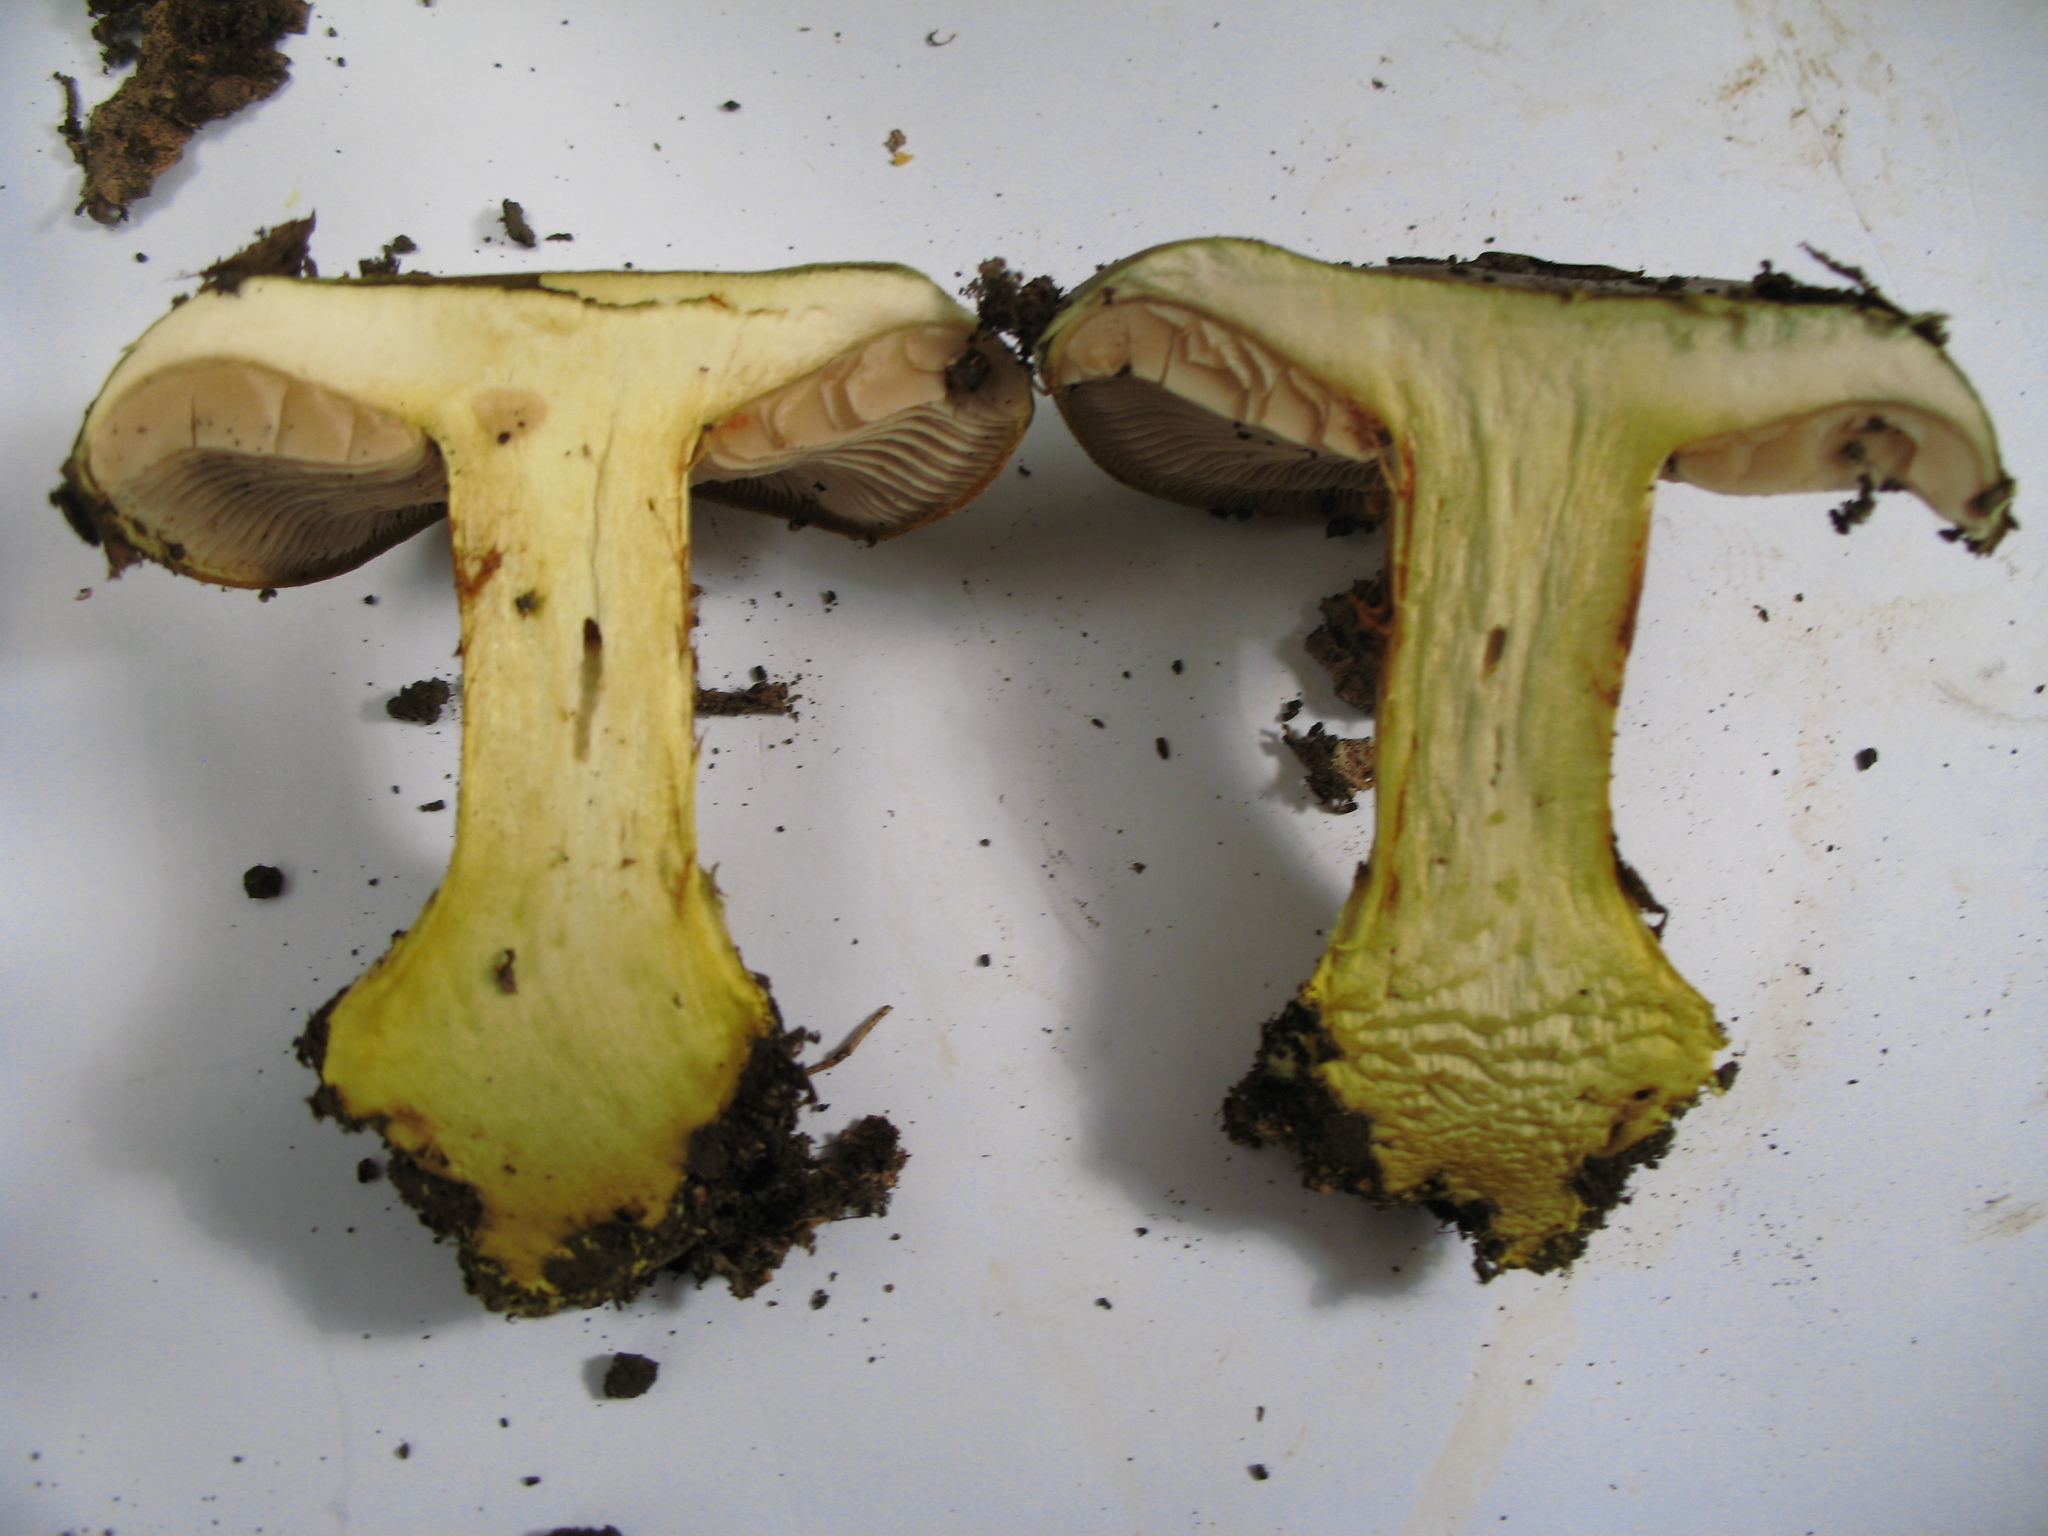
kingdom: Fungi
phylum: Basidiomycota
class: Agaricomycetes
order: Agaricales
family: Cortinariaceae
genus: Calonarius
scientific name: Calonarius ionochlorus
